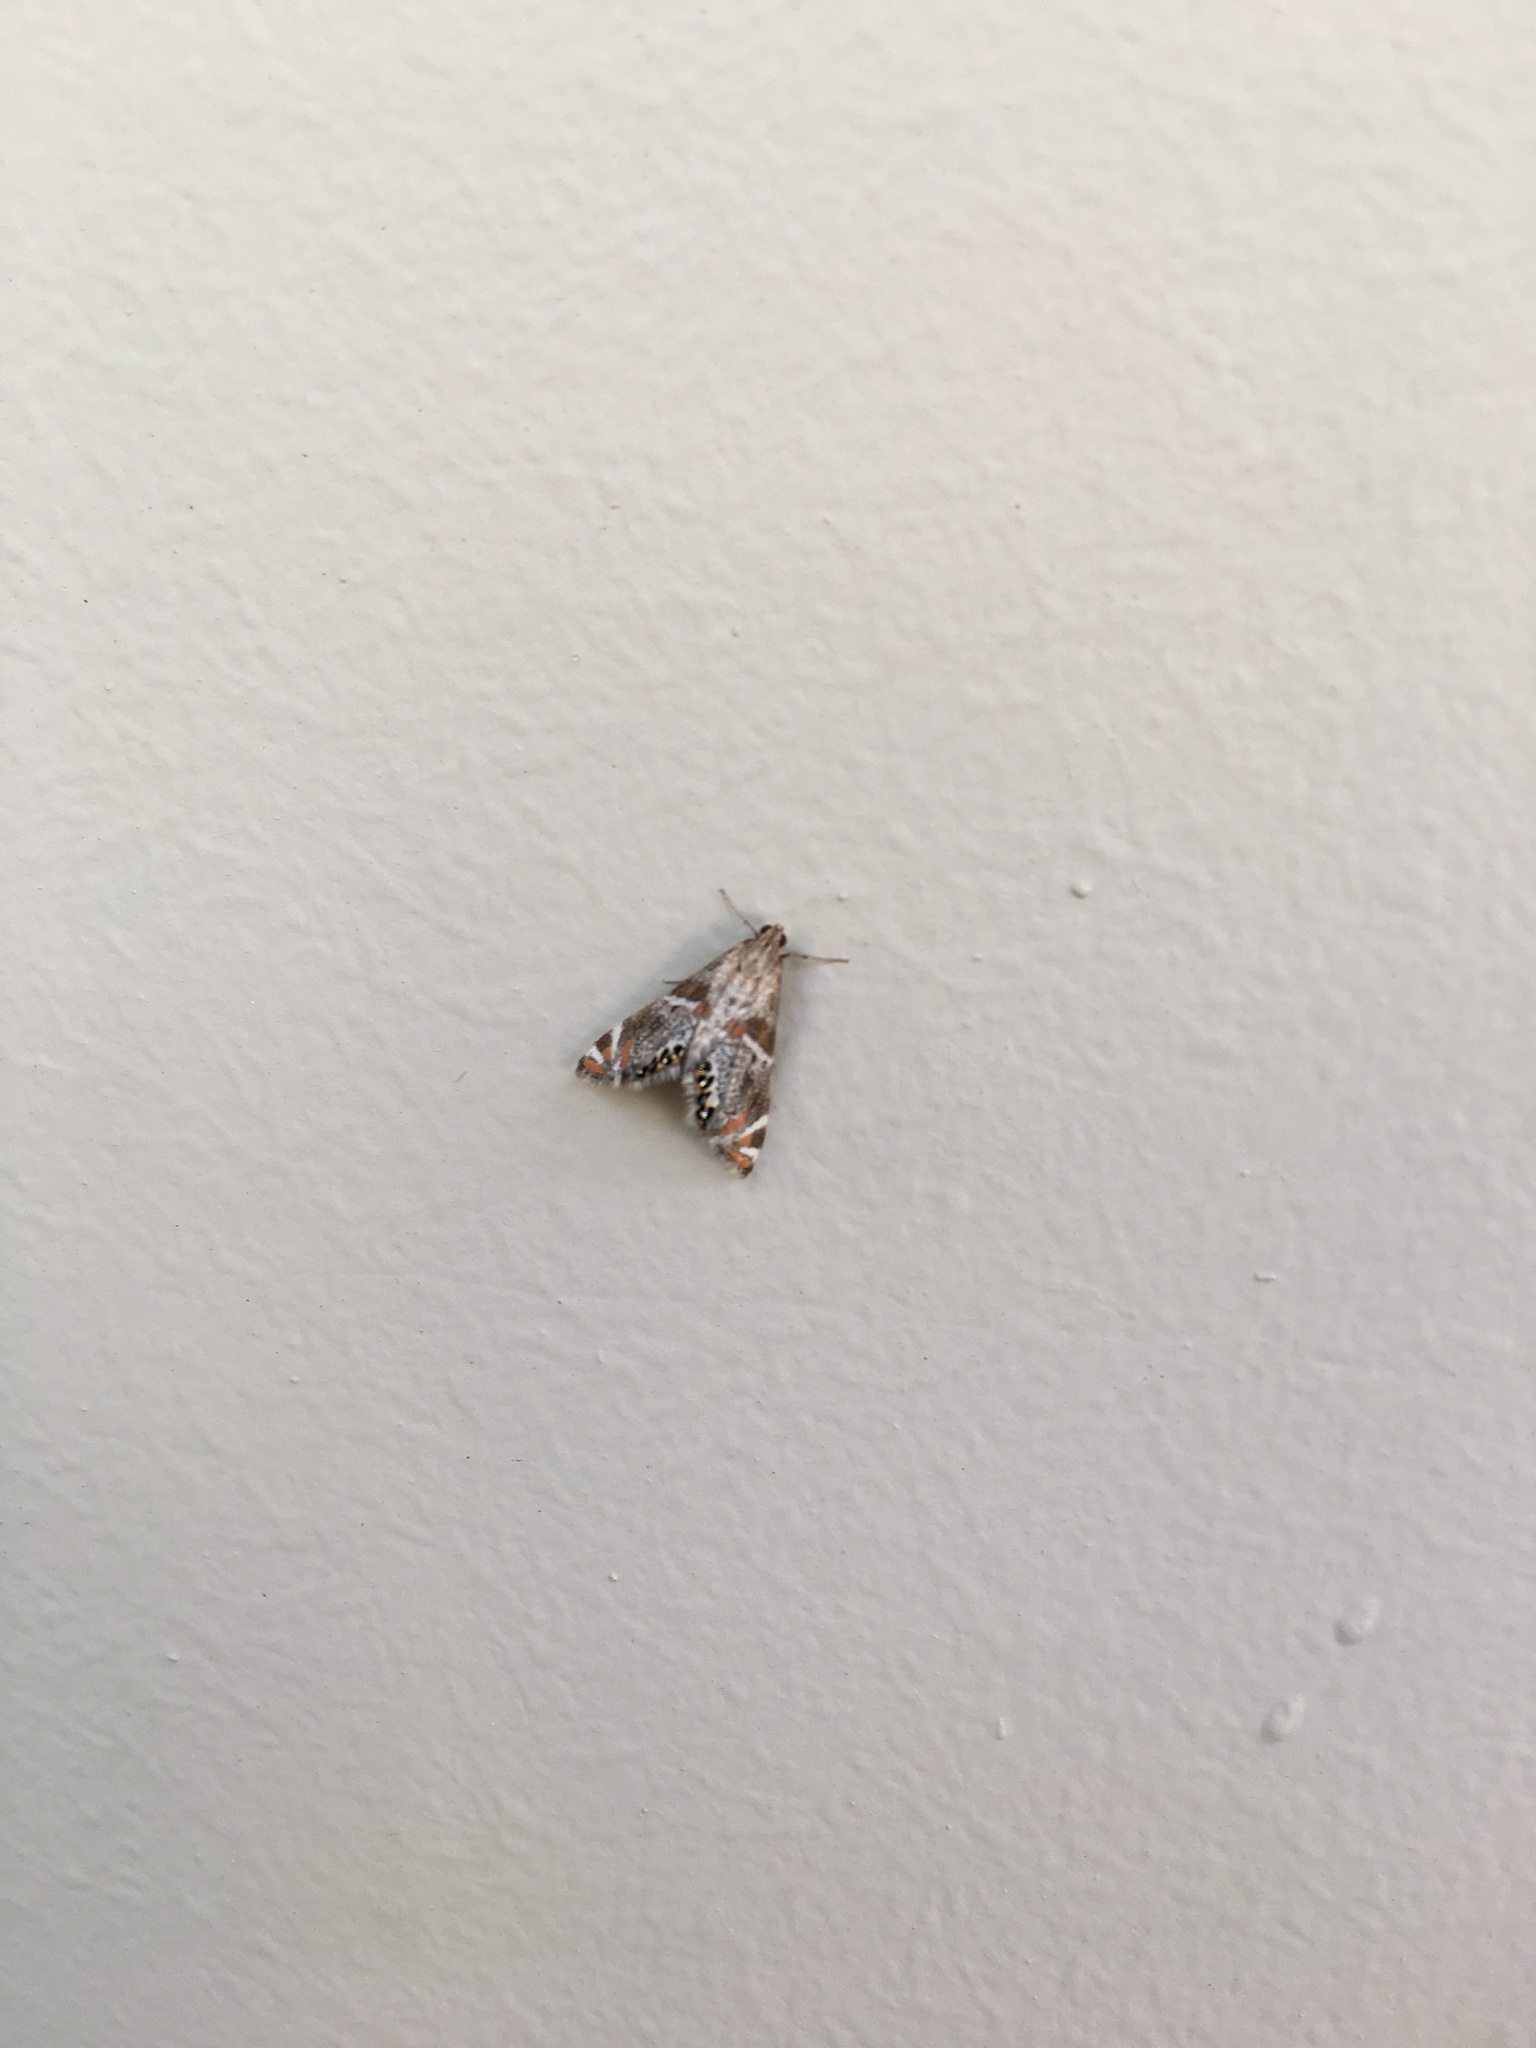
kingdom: Animalia
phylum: Arthropoda
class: Insecta
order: Lepidoptera
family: Crambidae
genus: Petrophila
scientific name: Petrophila jaliscalis
